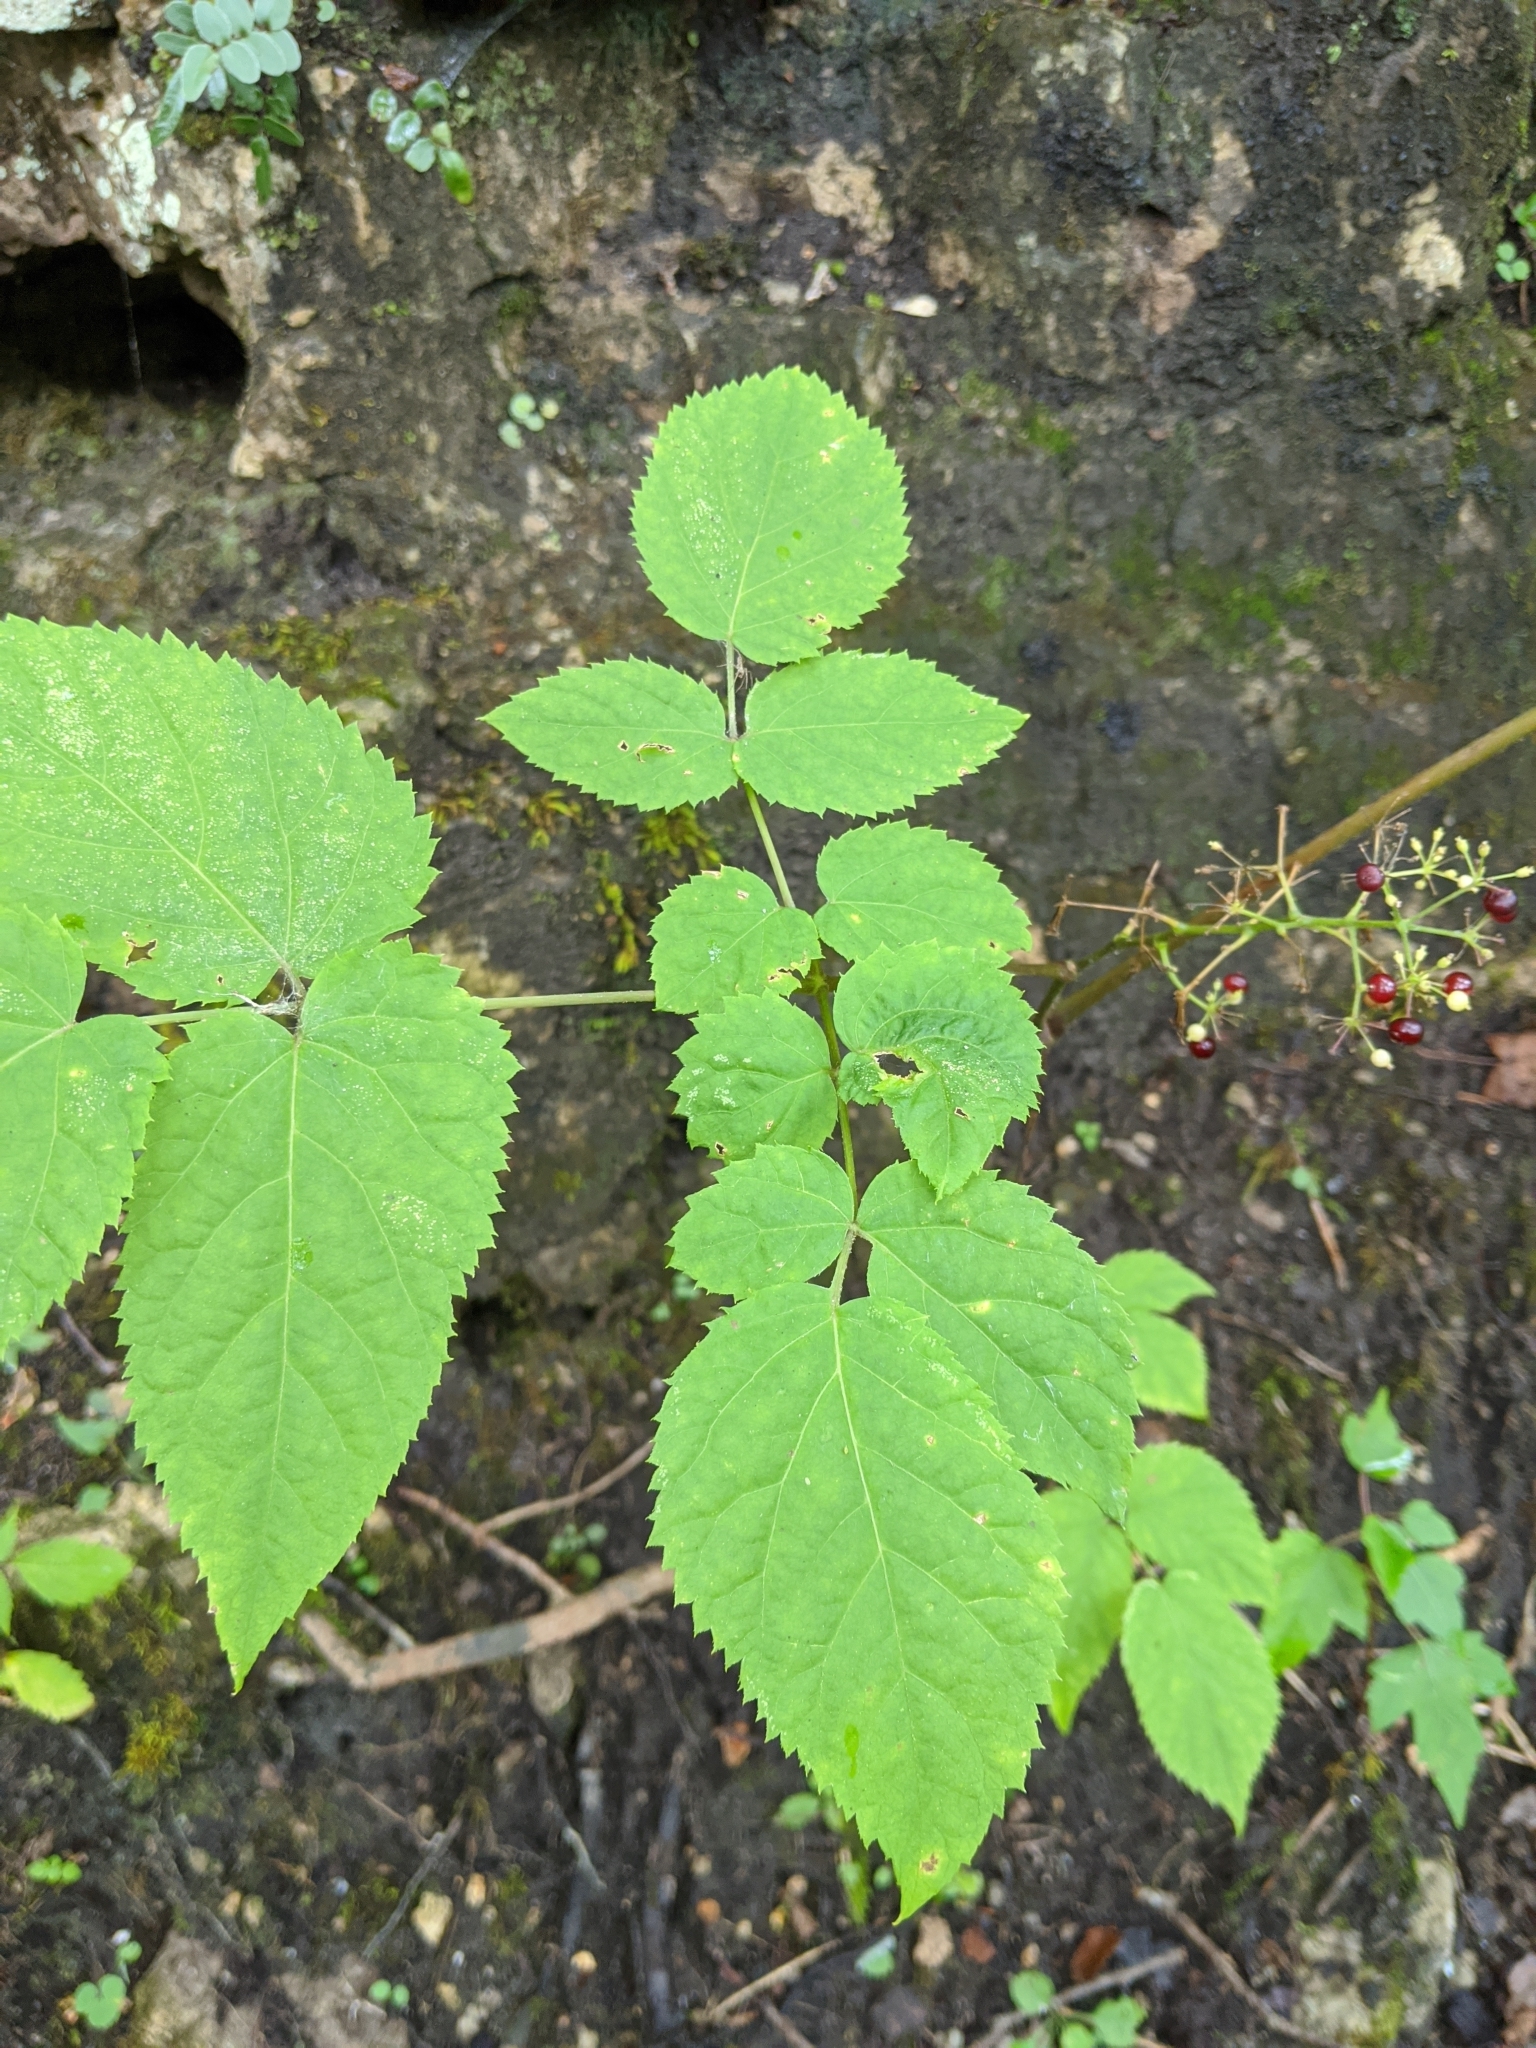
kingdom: Plantae
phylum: Tracheophyta
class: Magnoliopsida
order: Apiales
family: Araliaceae
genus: Aralia
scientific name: Aralia racemosa
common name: American-spikenard
